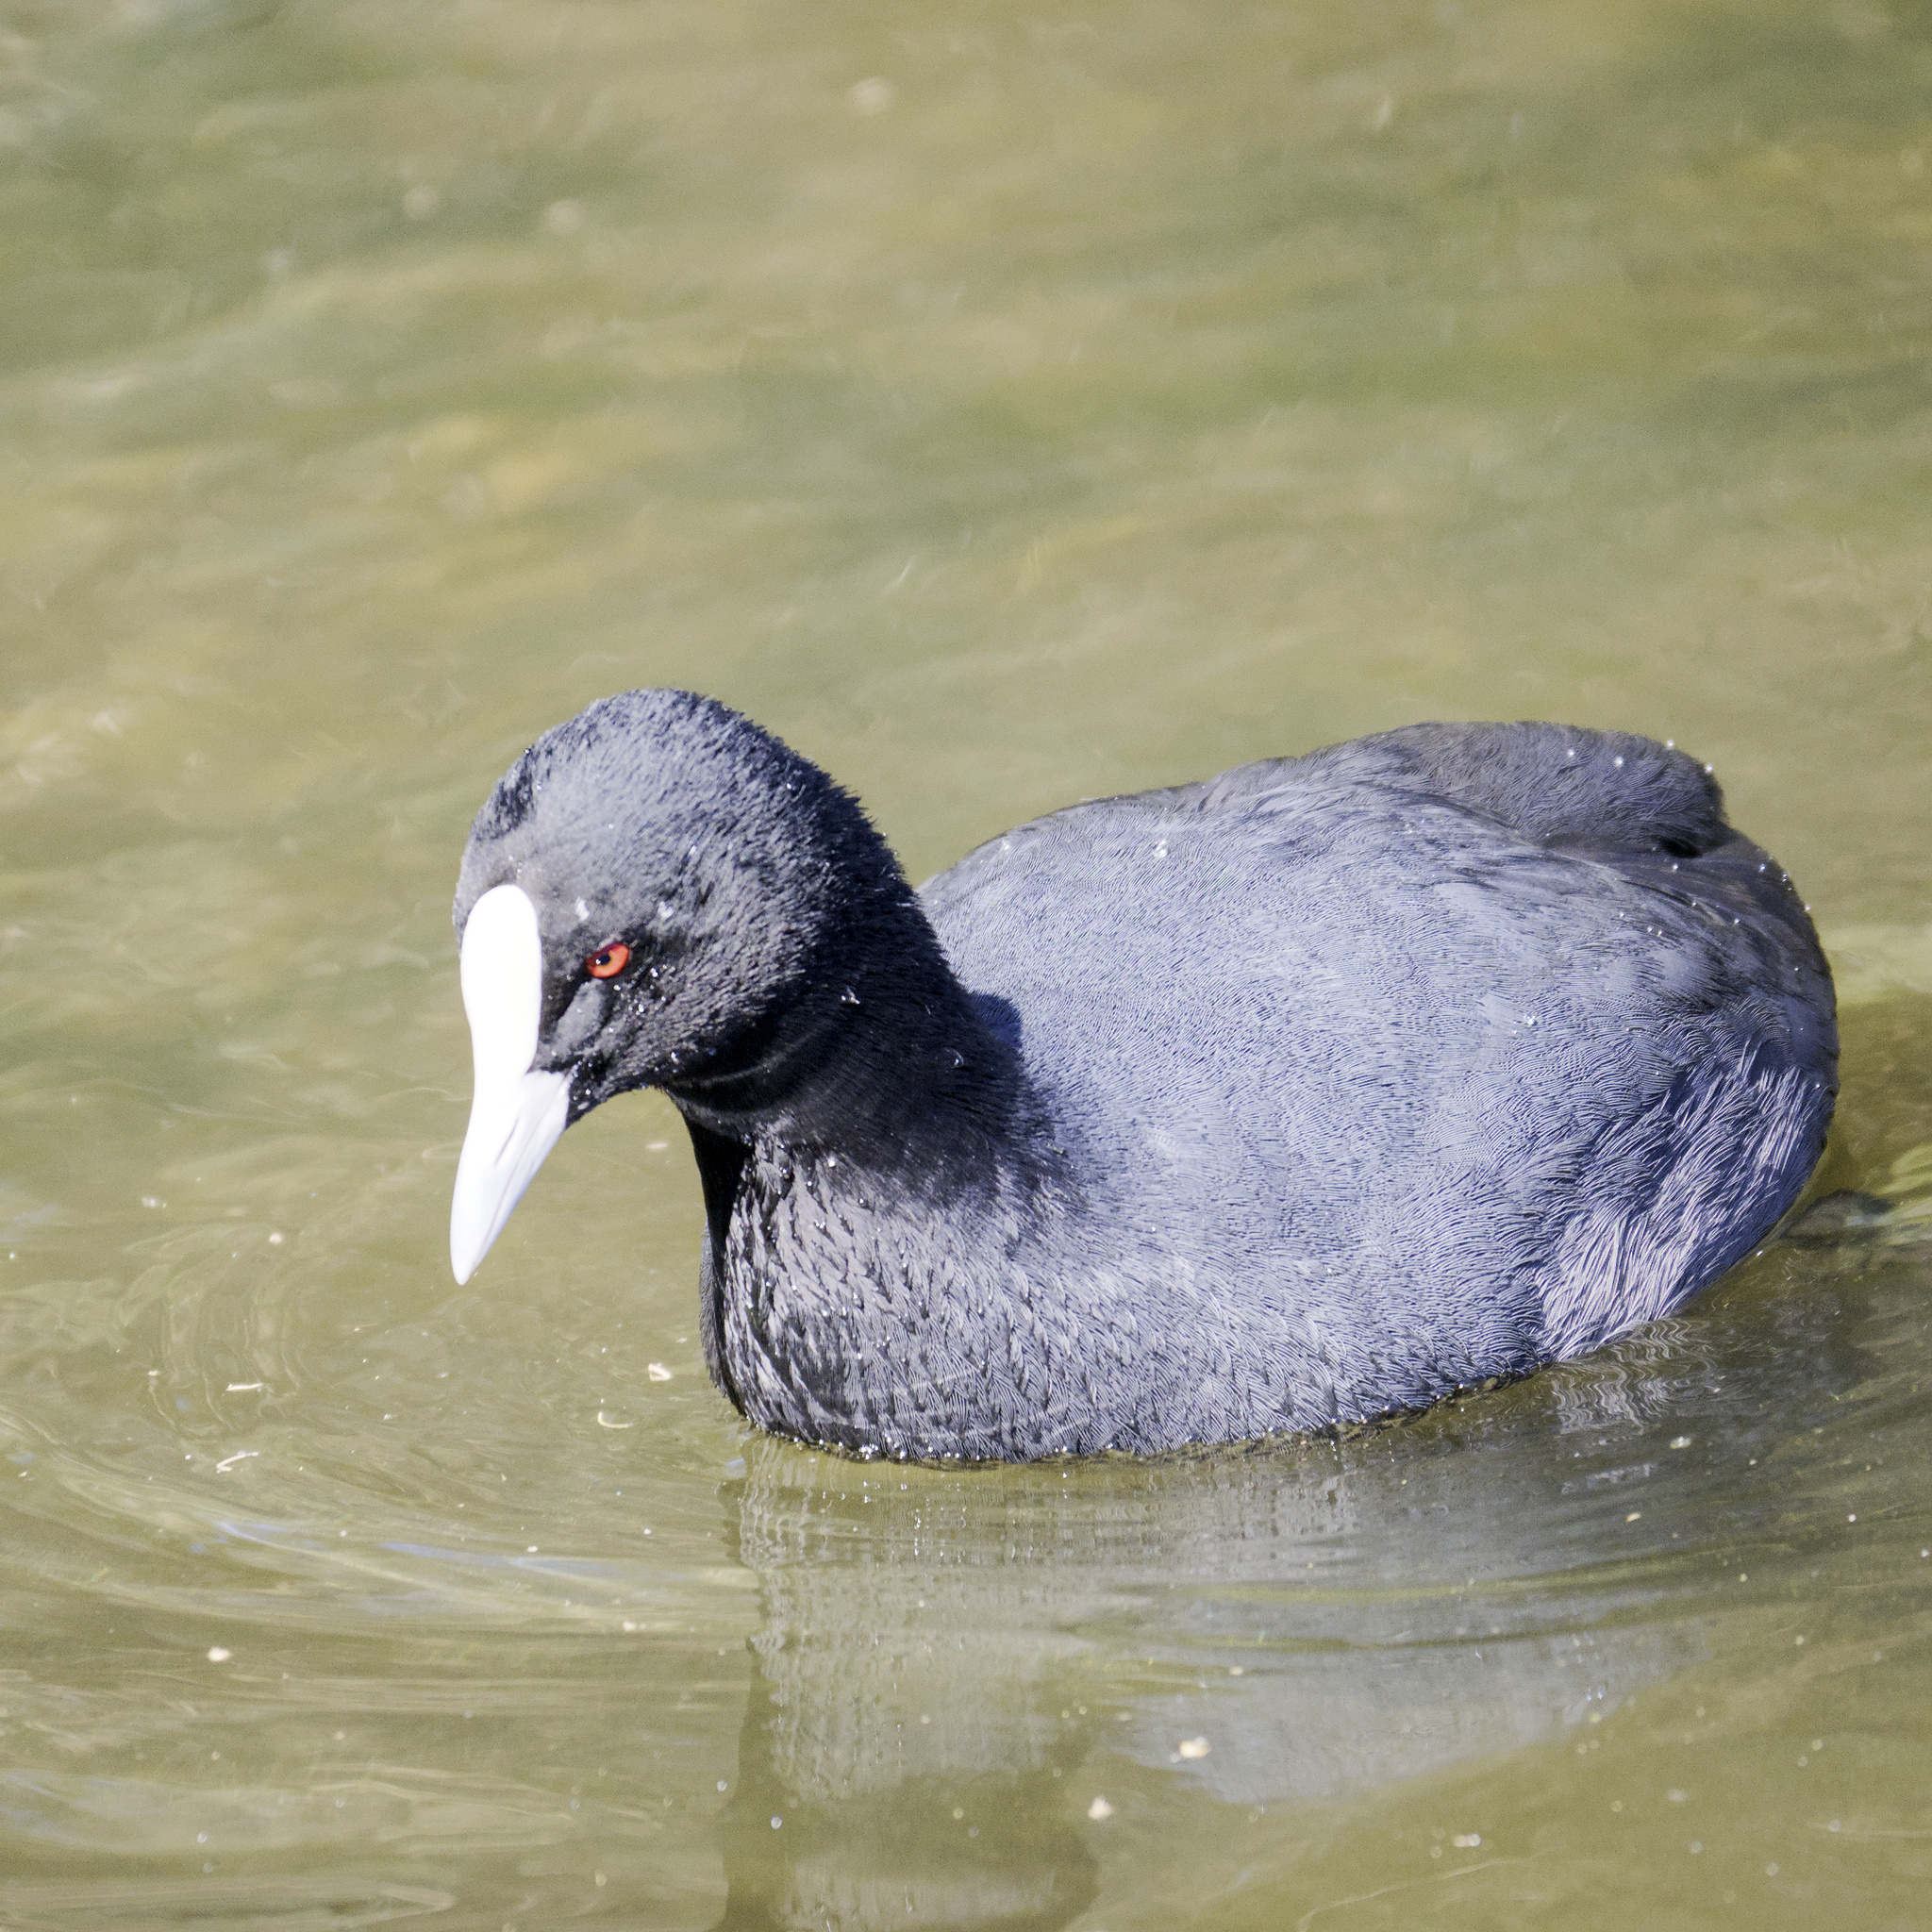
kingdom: Animalia
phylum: Chordata
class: Aves
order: Gruiformes
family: Rallidae
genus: Fulica
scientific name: Fulica atra
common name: Eurasian coot
